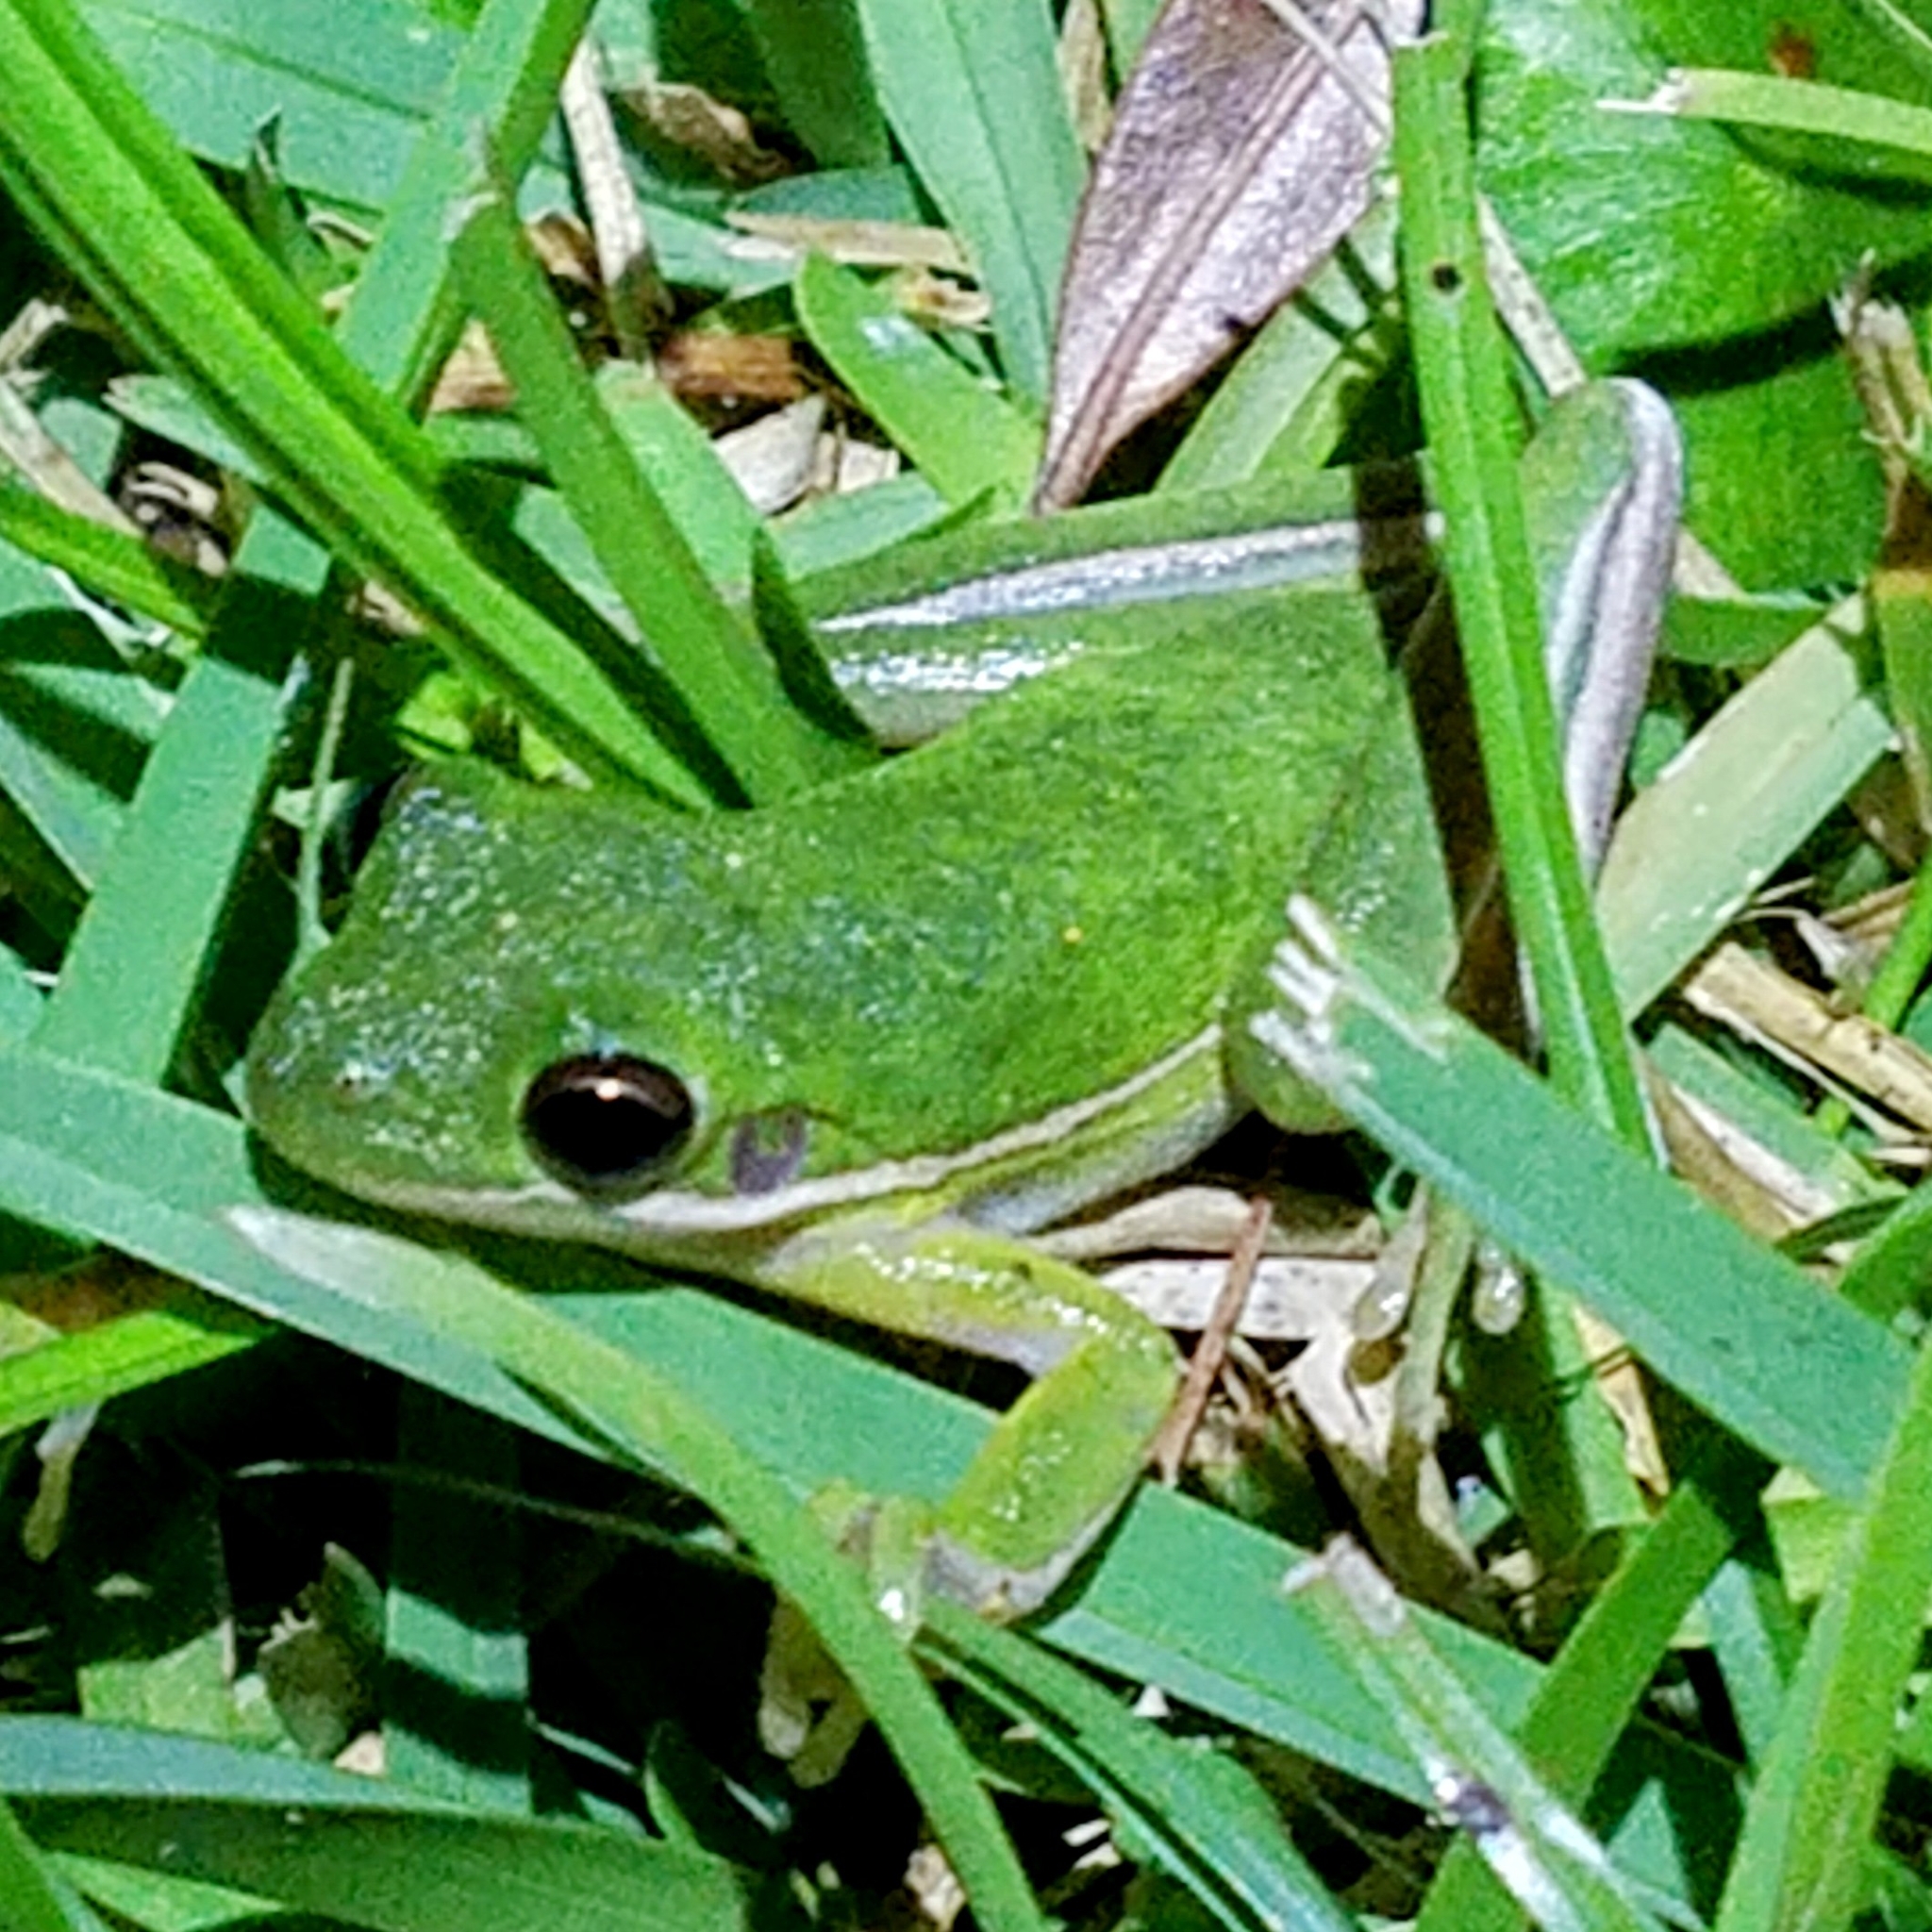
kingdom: Animalia
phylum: Chordata
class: Amphibia
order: Anura
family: Hylidae
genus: Dryophytes
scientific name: Dryophytes cinereus
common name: Green treefrog
